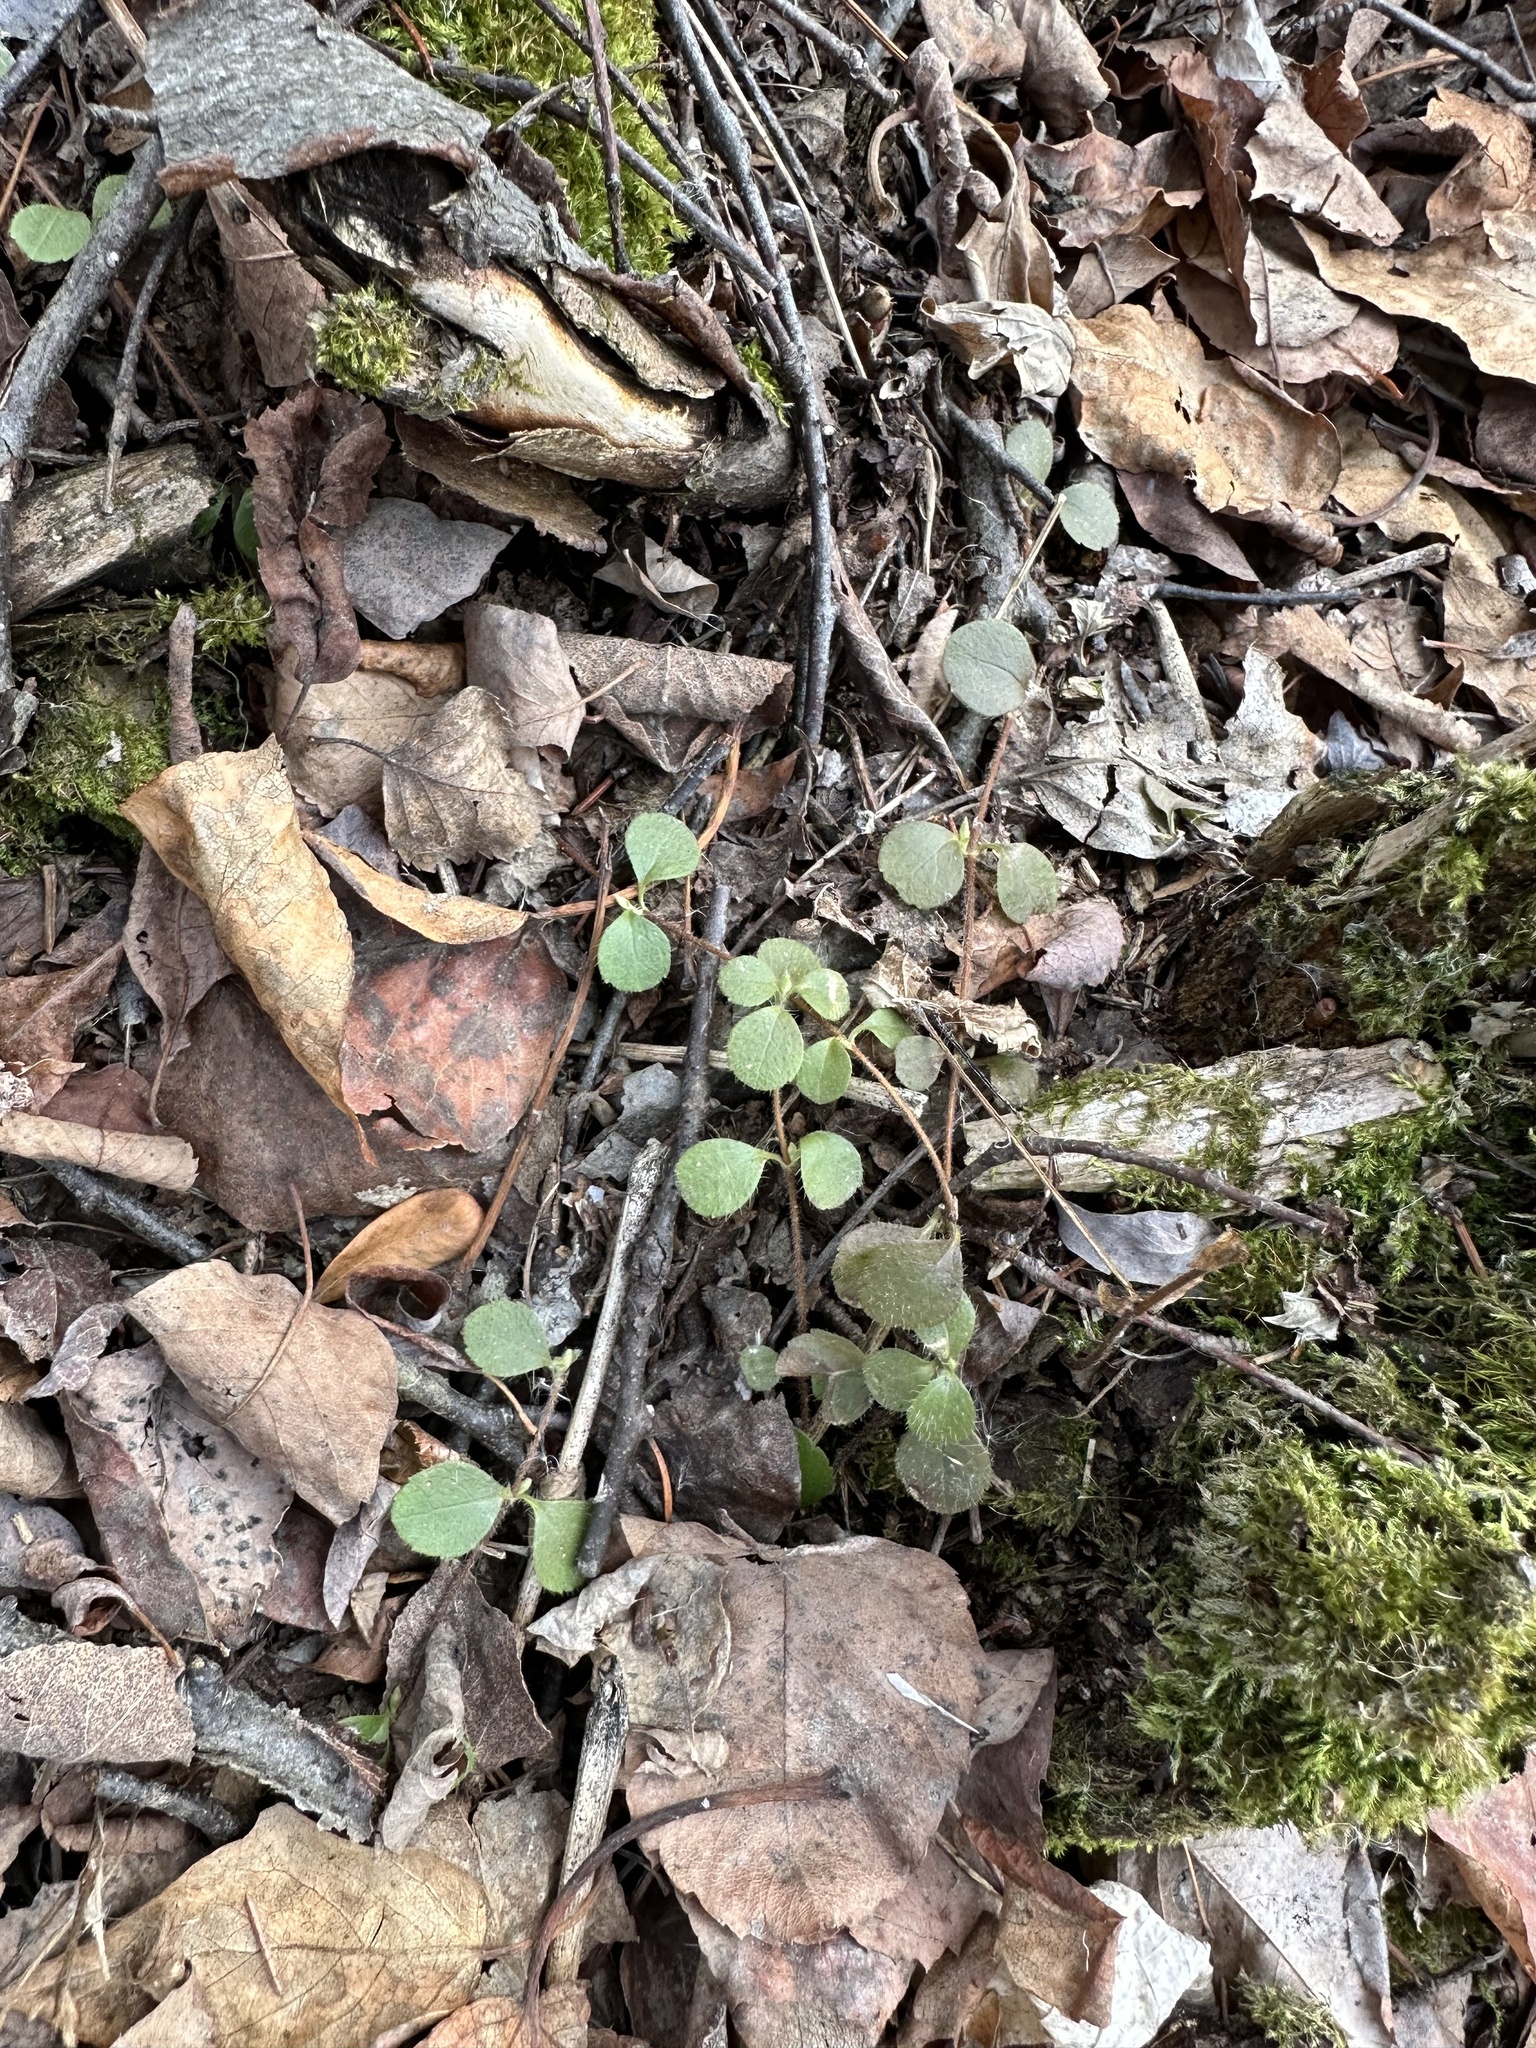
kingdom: Plantae
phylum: Tracheophyta
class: Magnoliopsida
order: Dipsacales
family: Caprifoliaceae
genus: Linnaea
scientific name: Linnaea borealis
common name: Twinflower
